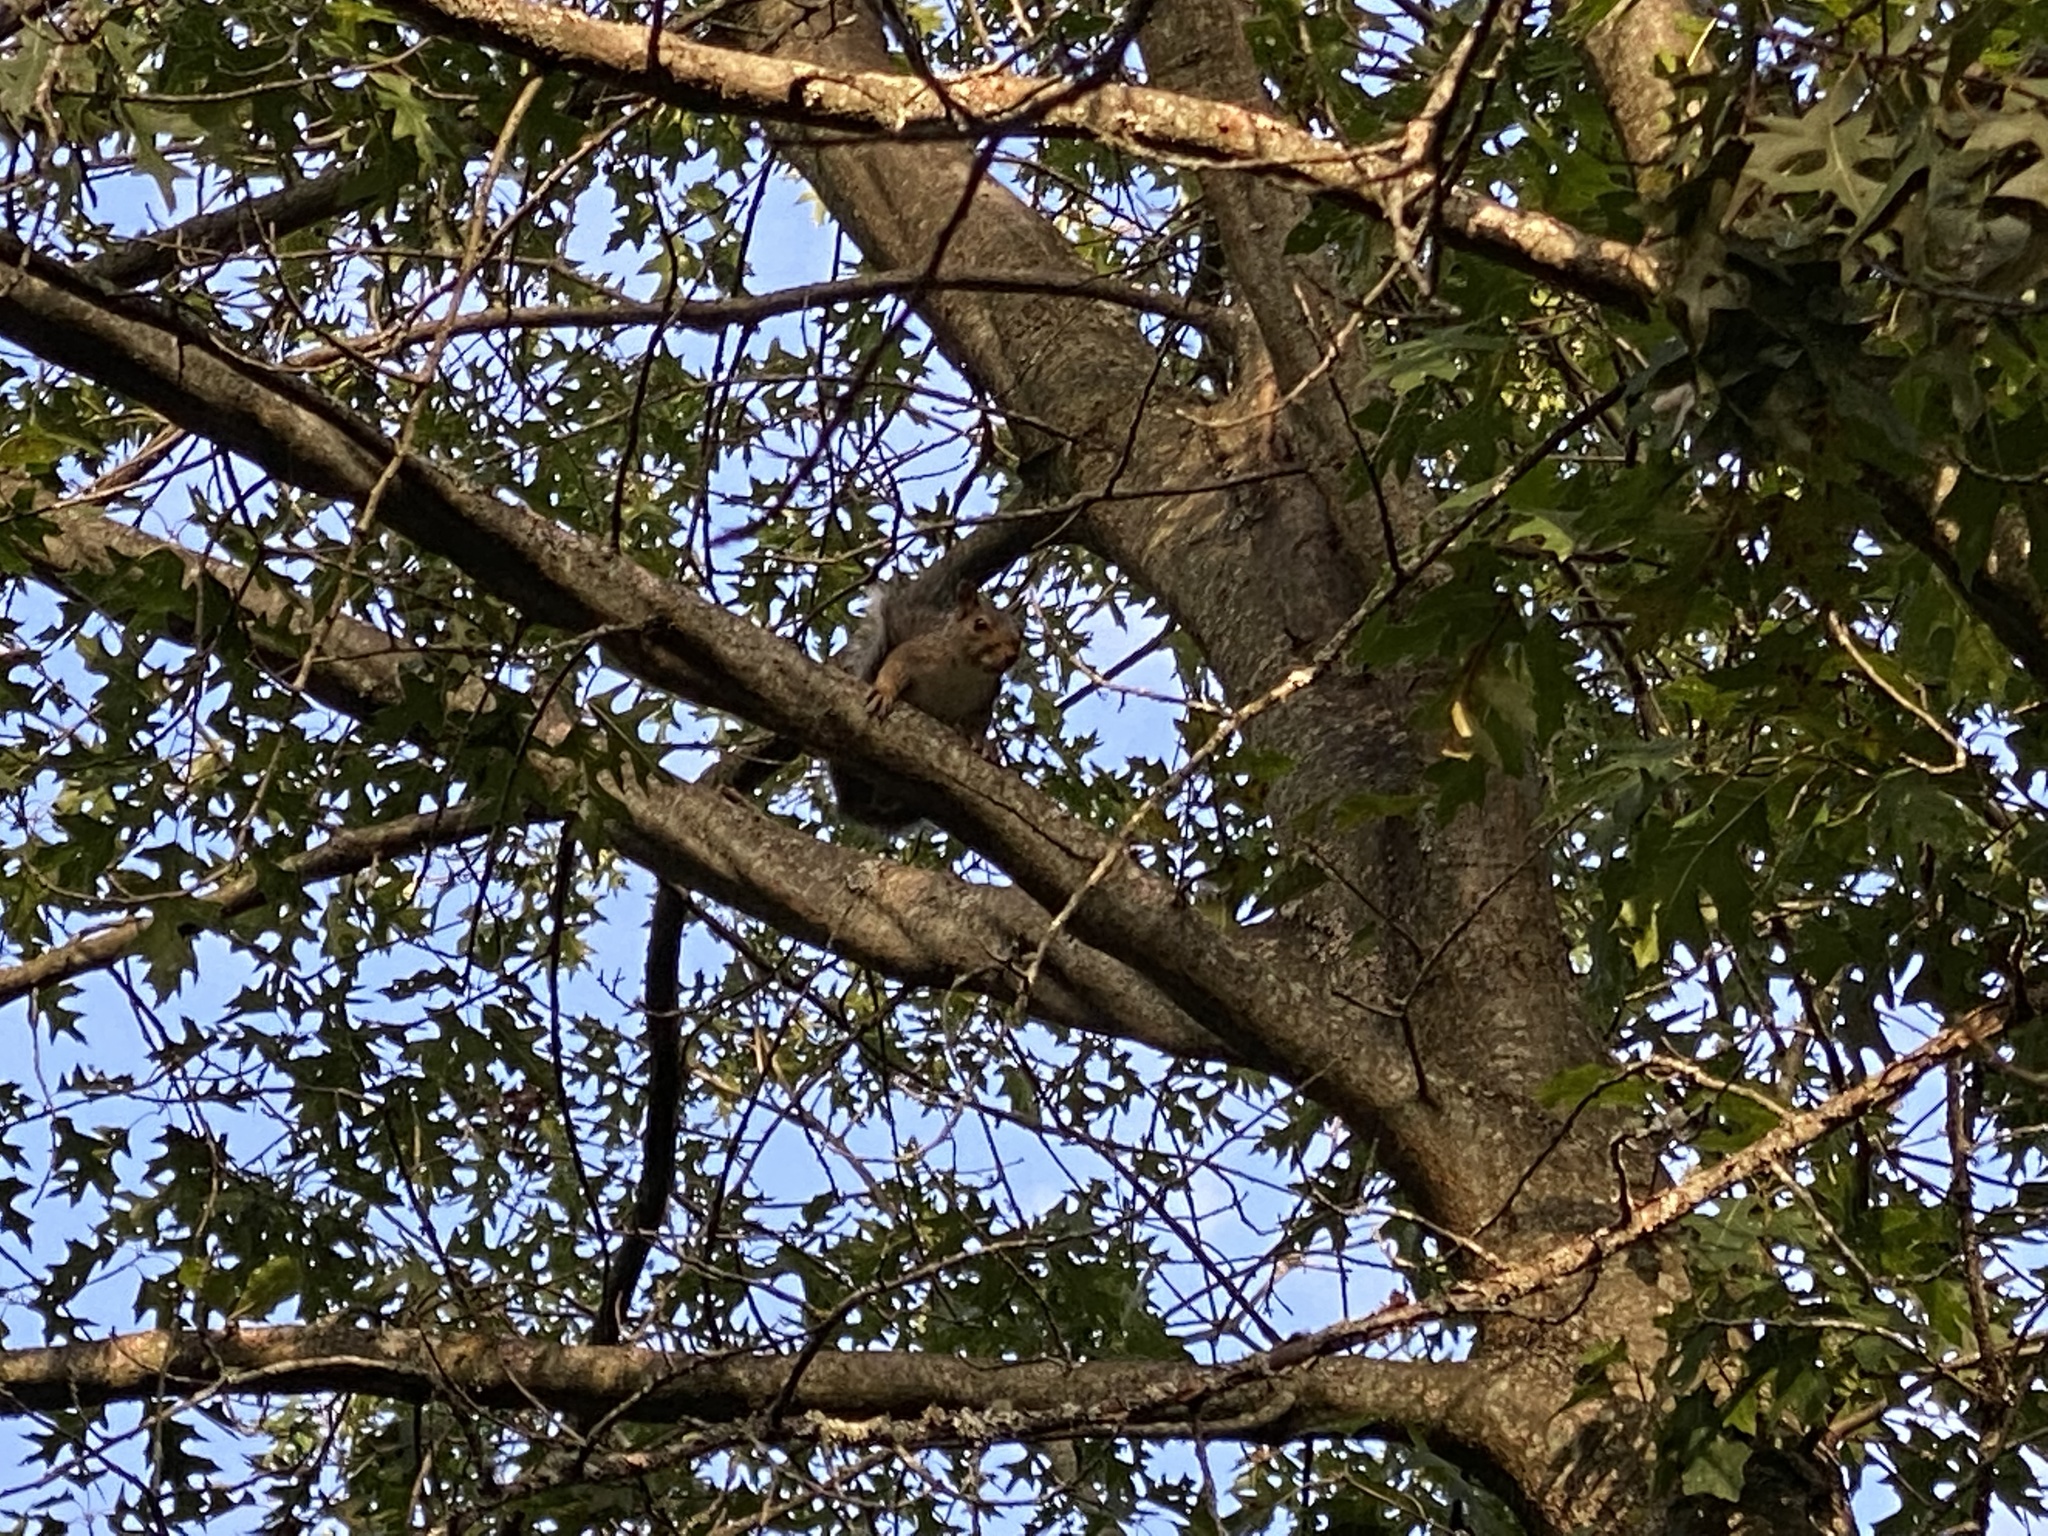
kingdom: Animalia
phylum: Chordata
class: Mammalia
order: Rodentia
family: Sciuridae
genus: Sciurus
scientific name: Sciurus carolinensis
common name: Eastern gray squirrel
